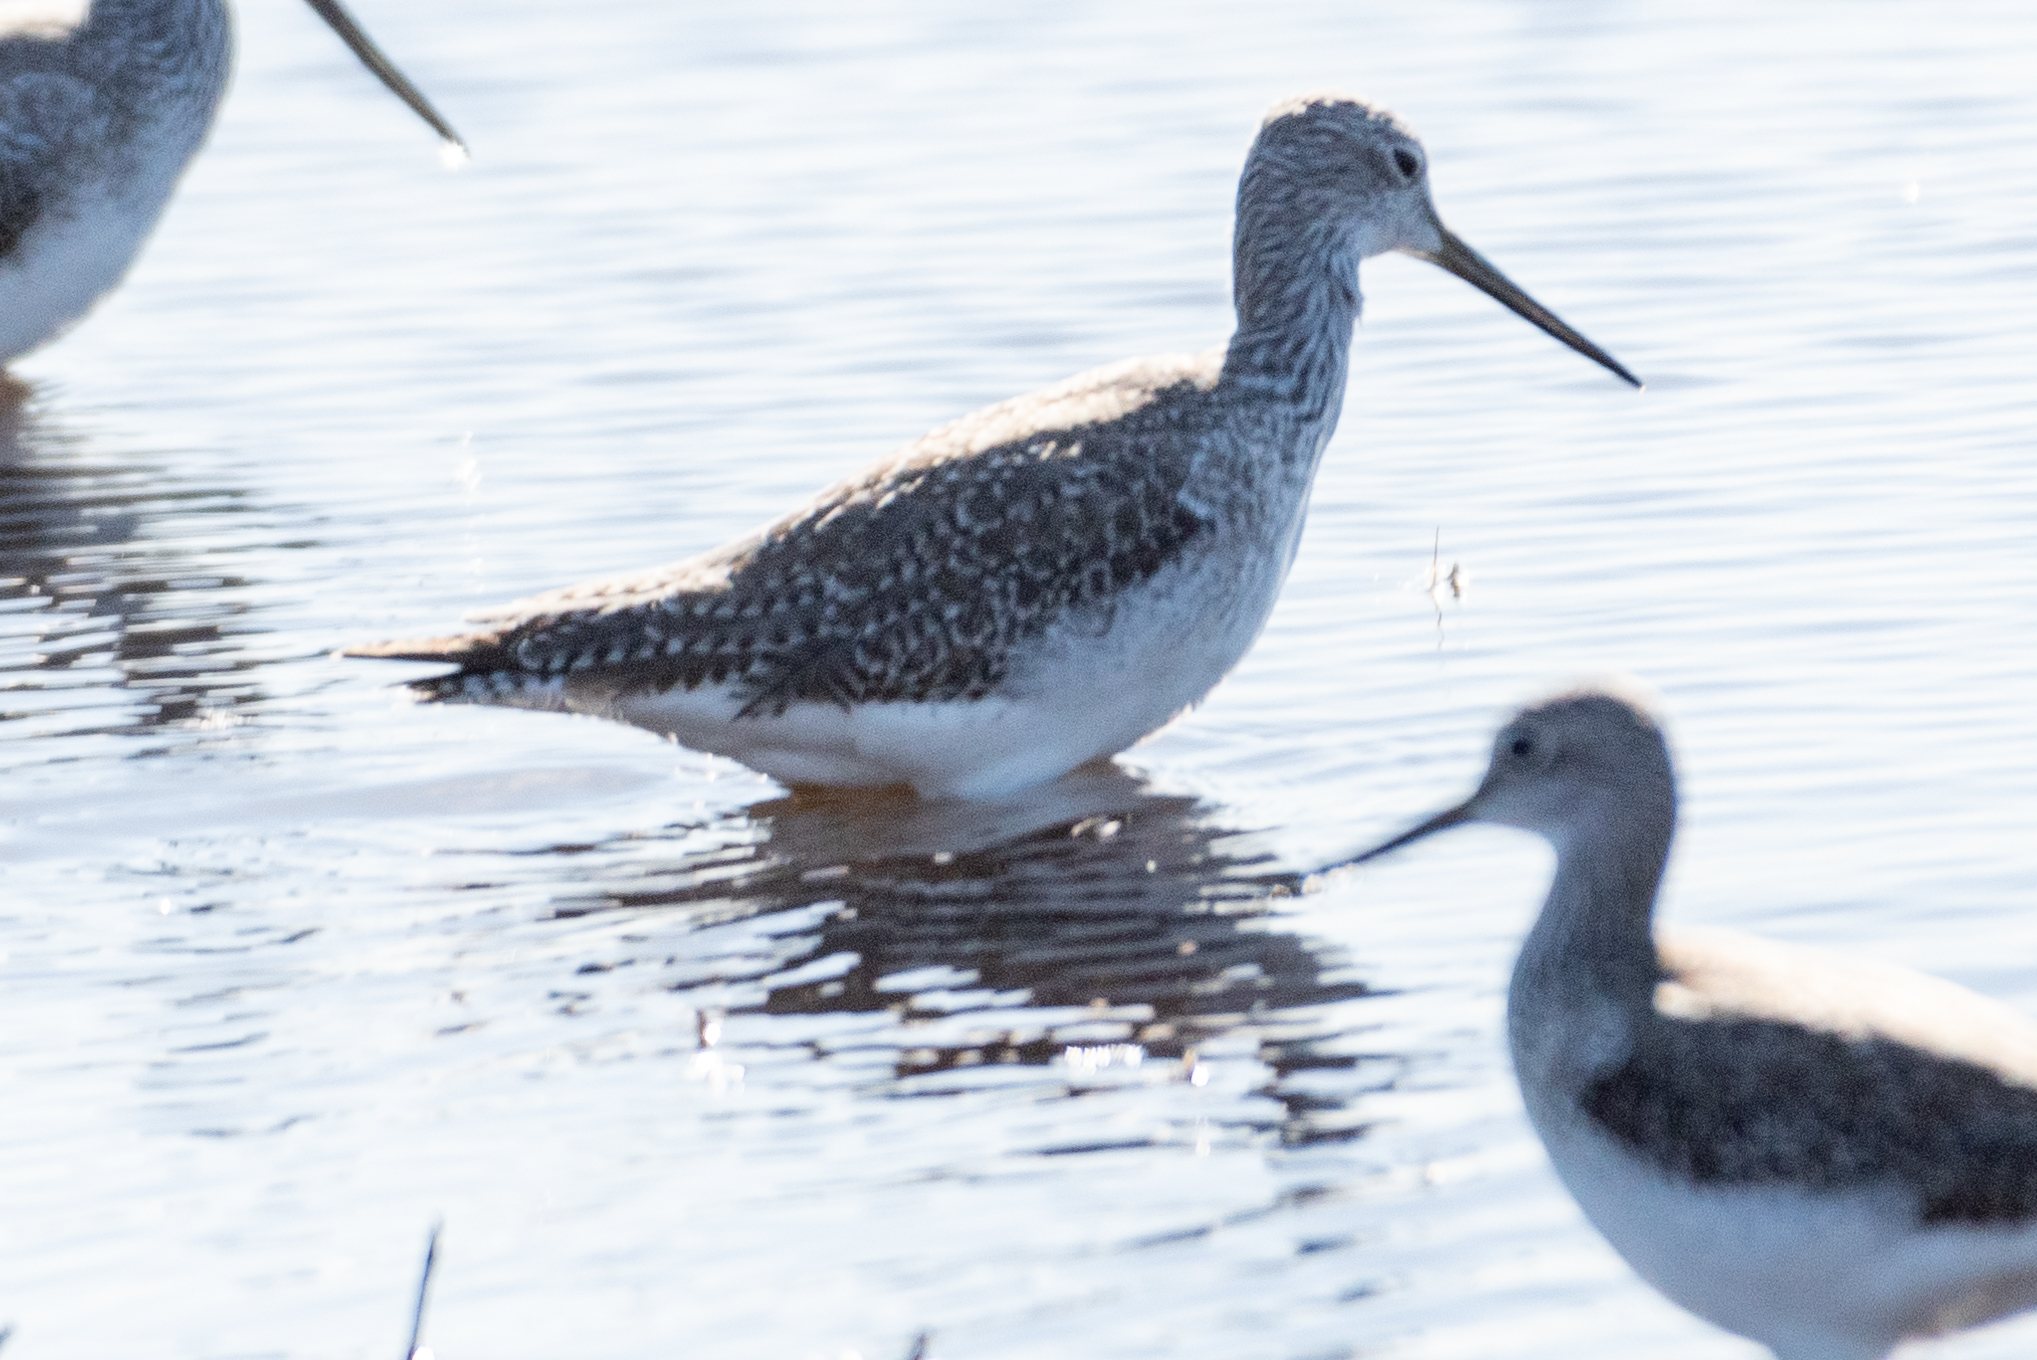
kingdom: Animalia
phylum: Chordata
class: Aves
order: Charadriiformes
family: Scolopacidae
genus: Tringa
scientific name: Tringa melanoleuca
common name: Greater yellowlegs
